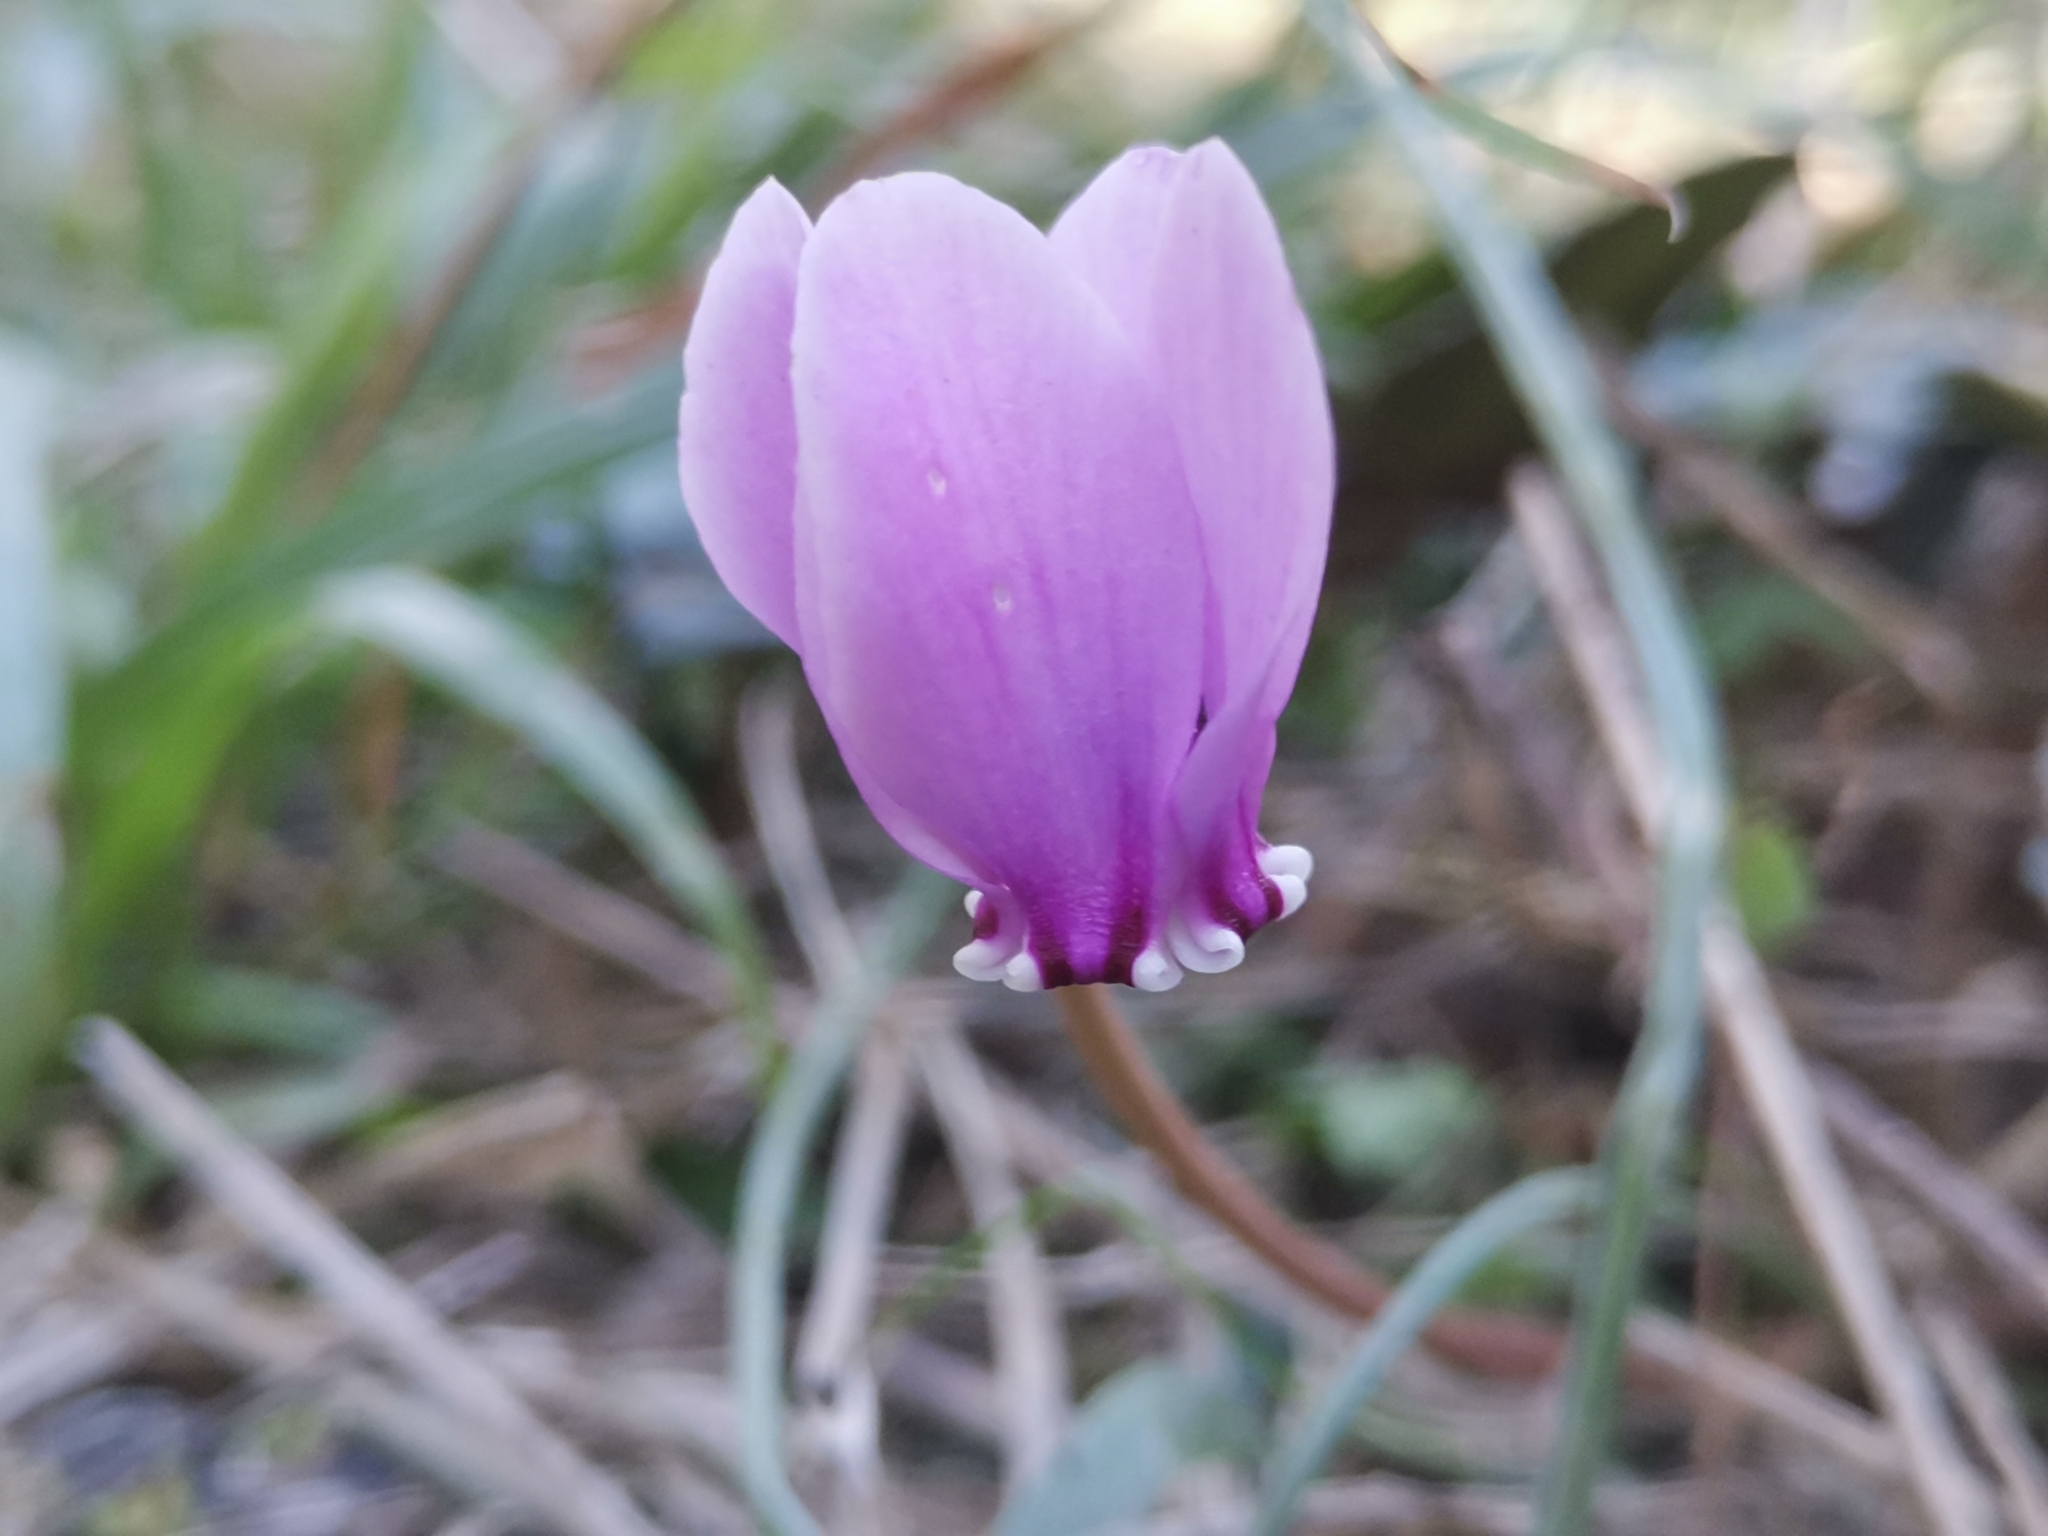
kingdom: Plantae
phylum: Tracheophyta
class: Magnoliopsida
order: Ericales
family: Primulaceae
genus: Cyclamen
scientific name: Cyclamen hederifolium
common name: Sowbread
